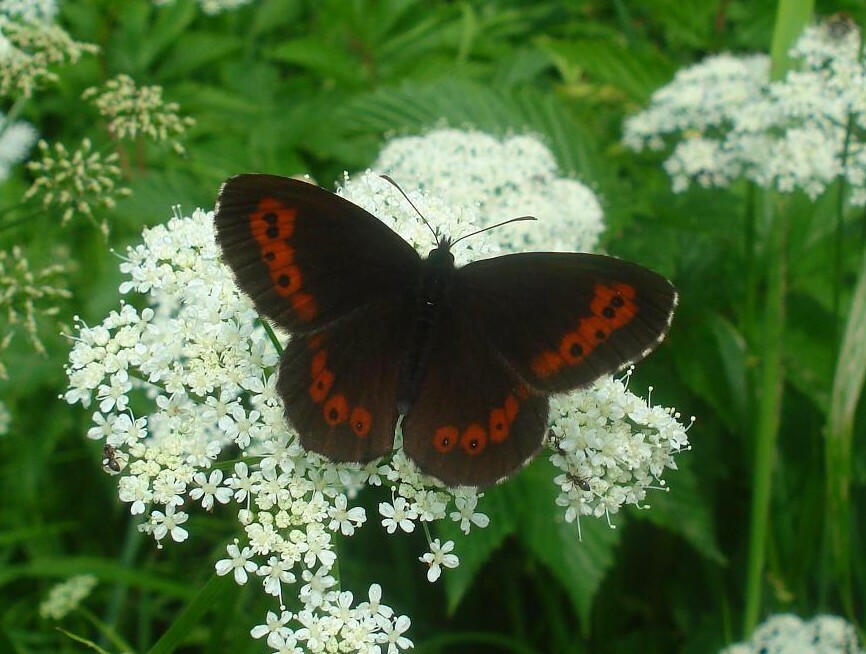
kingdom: Animalia
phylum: Arthropoda
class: Insecta
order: Lepidoptera
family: Nymphalidae
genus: Erebia
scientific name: Erebia ligea
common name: Arran brown
